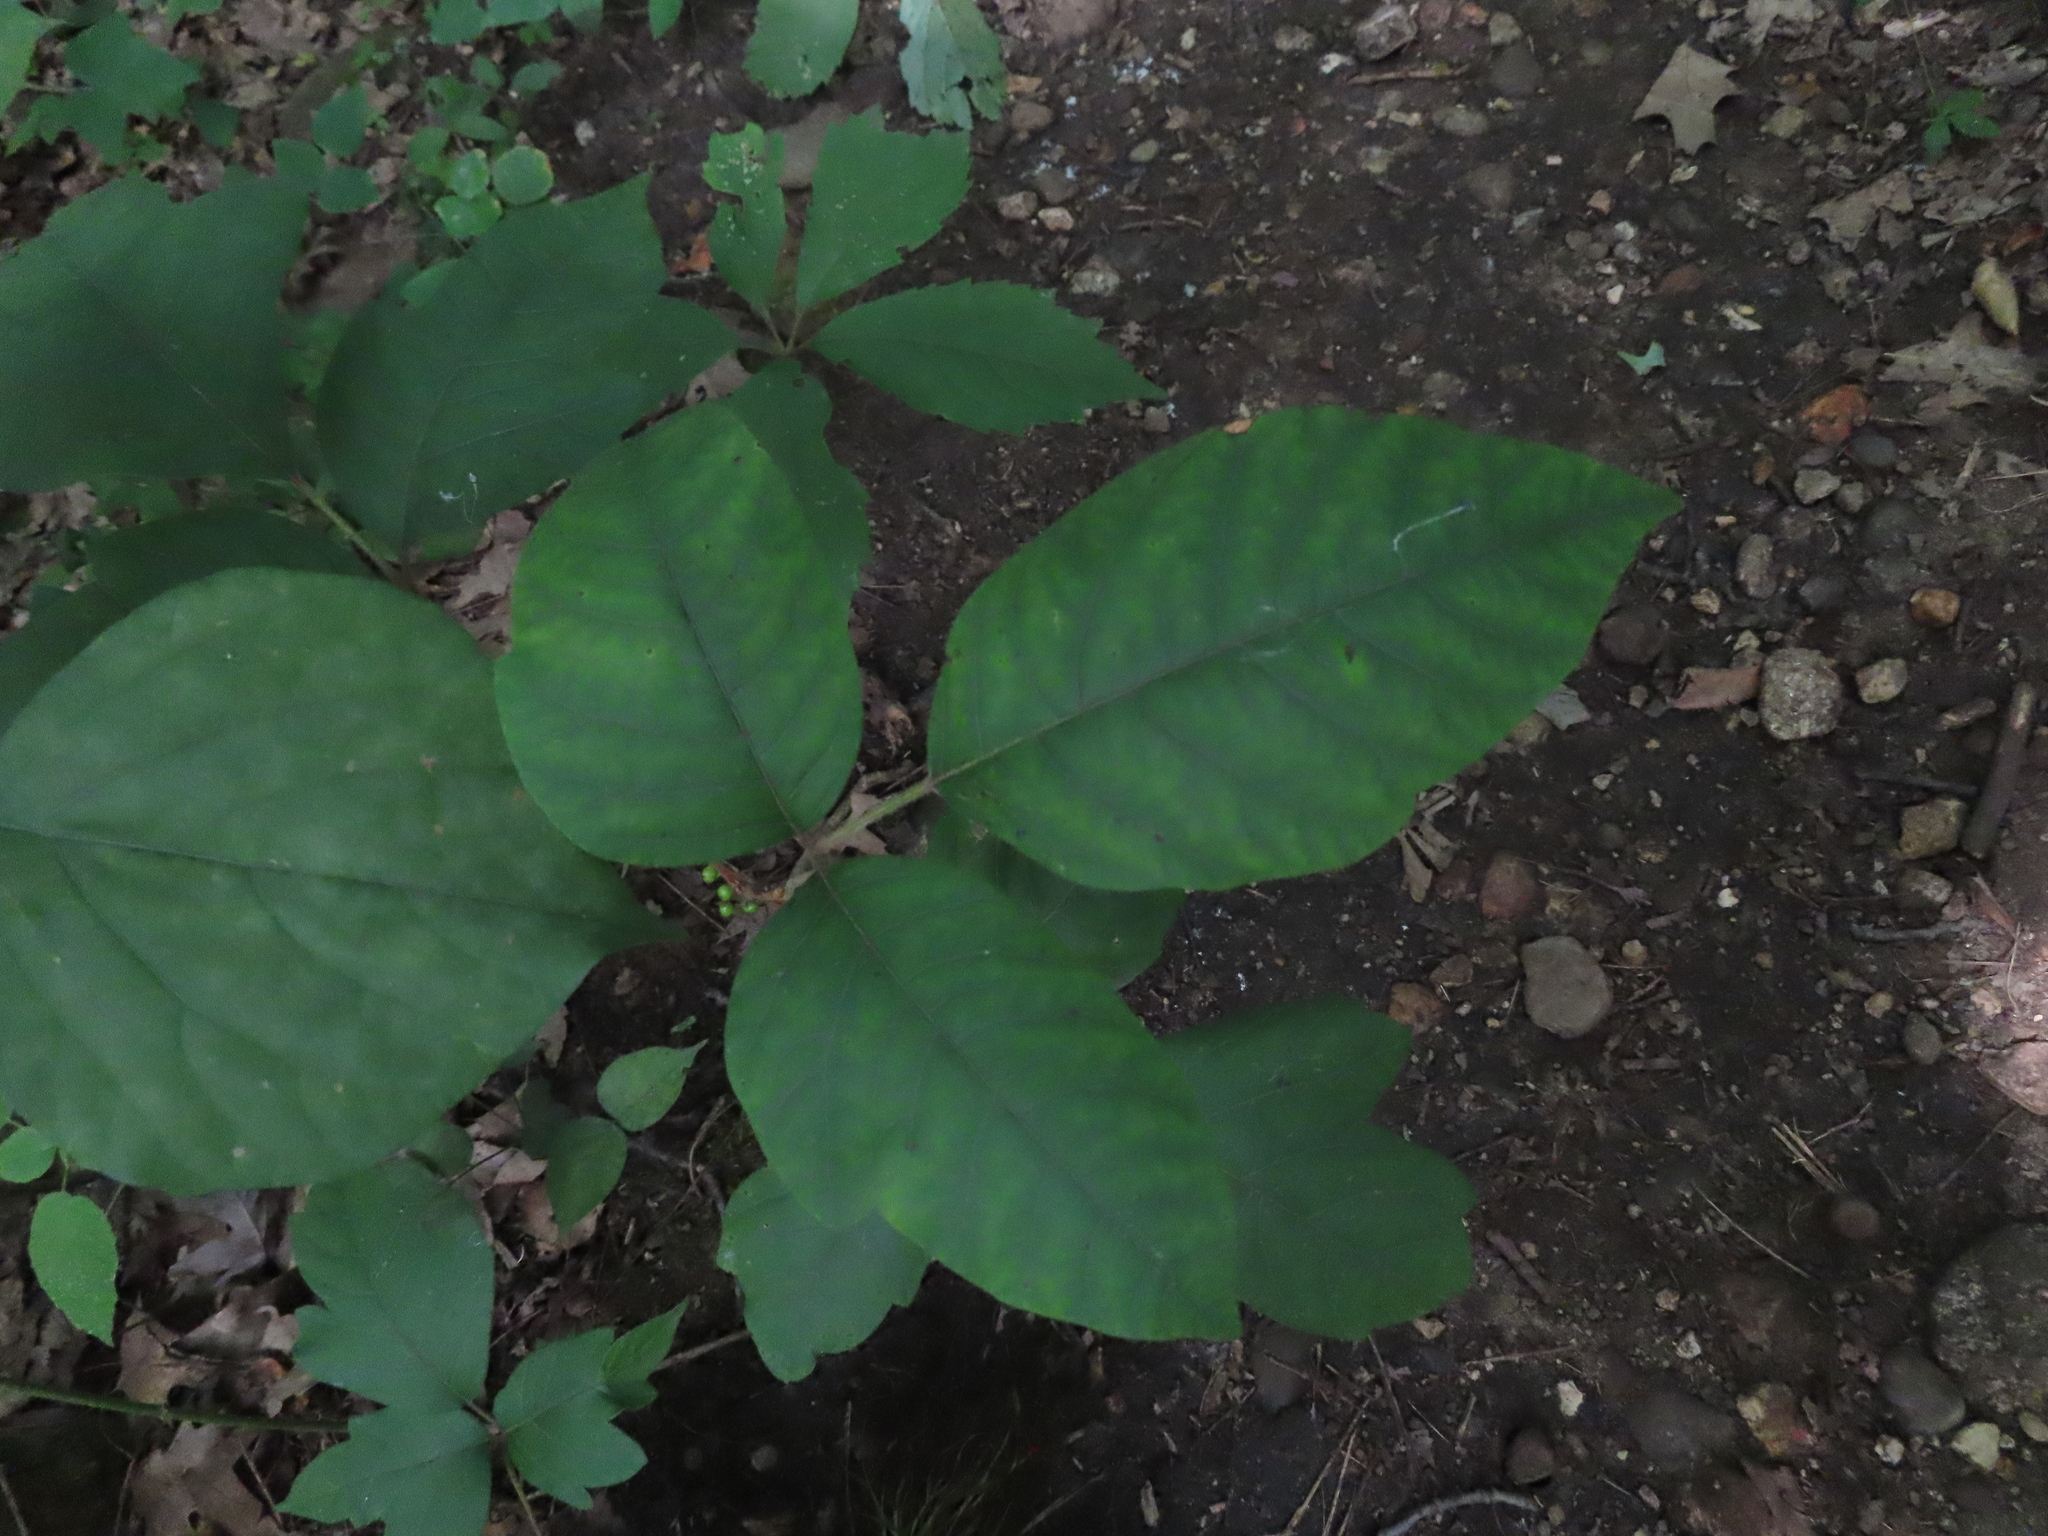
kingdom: Plantae
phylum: Tracheophyta
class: Magnoliopsida
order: Sapindales
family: Anacardiaceae
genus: Toxicodendron
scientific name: Toxicodendron radicans
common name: Poison ivy
